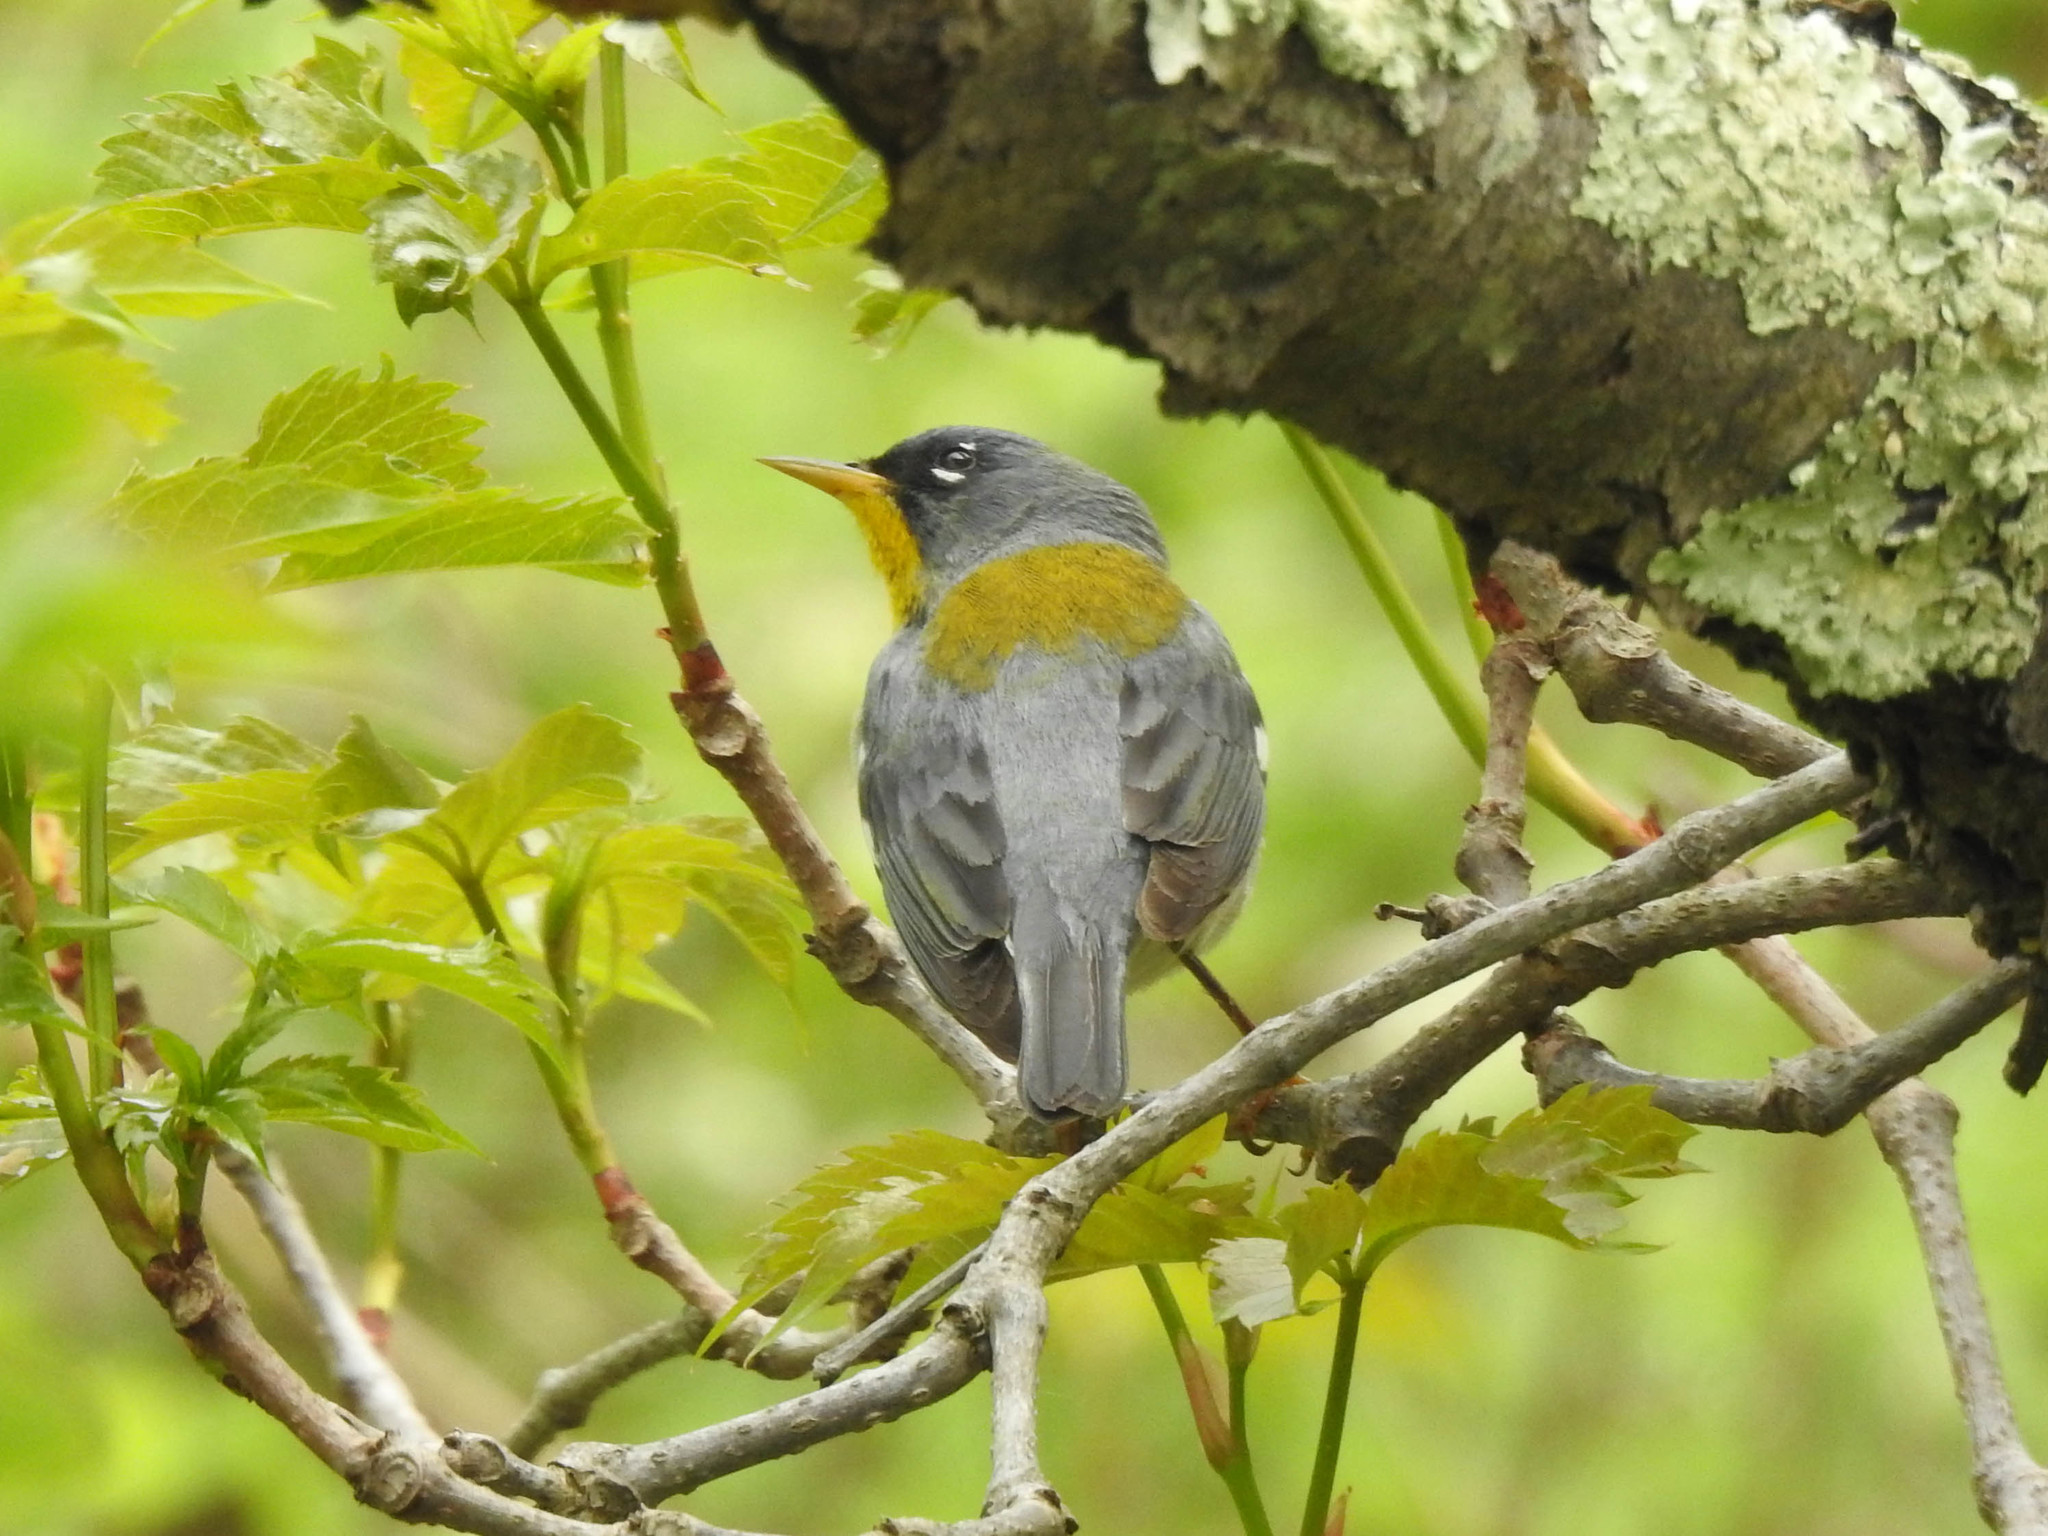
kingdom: Animalia
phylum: Chordata
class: Aves
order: Passeriformes
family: Parulidae
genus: Setophaga
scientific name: Setophaga americana
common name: Northern parula
